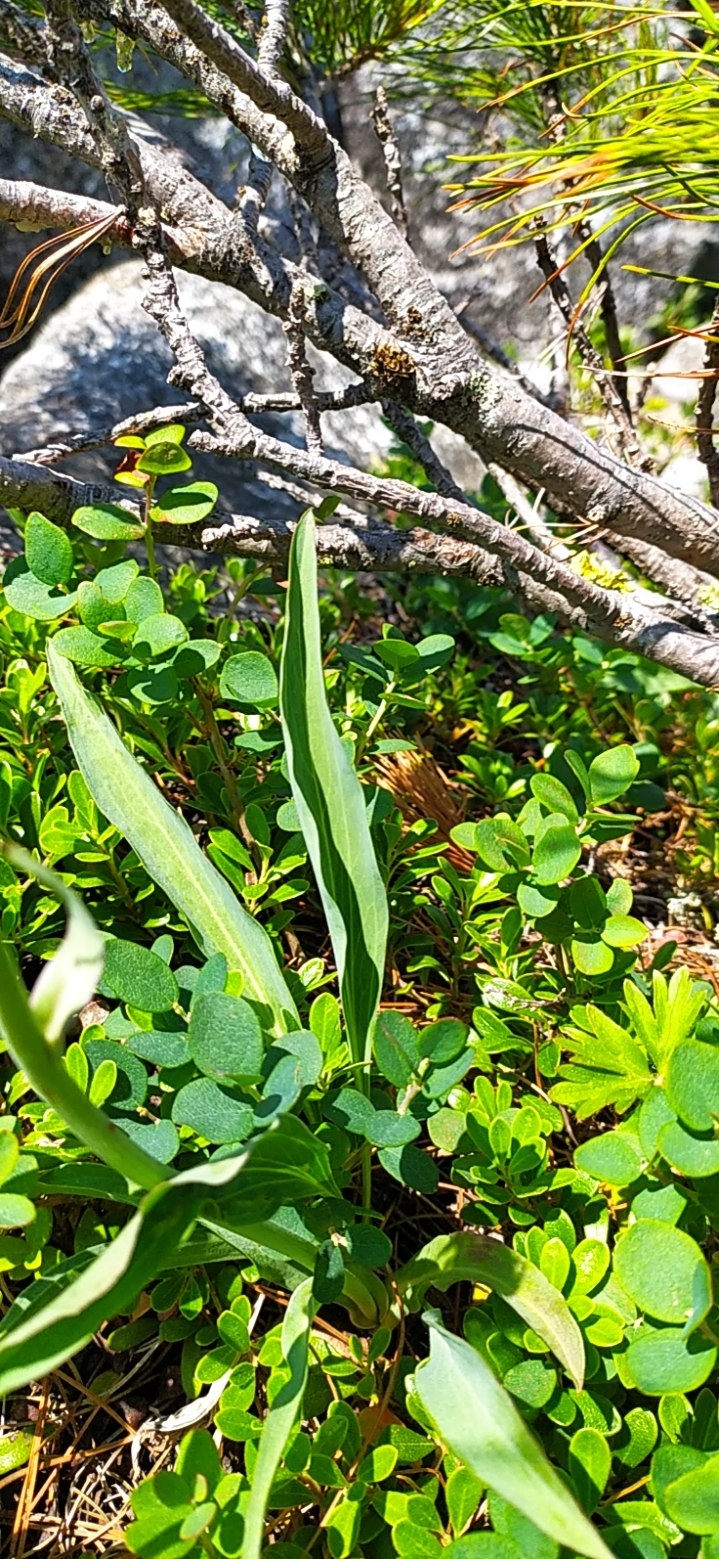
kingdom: Plantae
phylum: Tracheophyta
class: Magnoliopsida
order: Asterales
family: Asteraceae
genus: Scorzonera
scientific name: Scorzonera glabra
